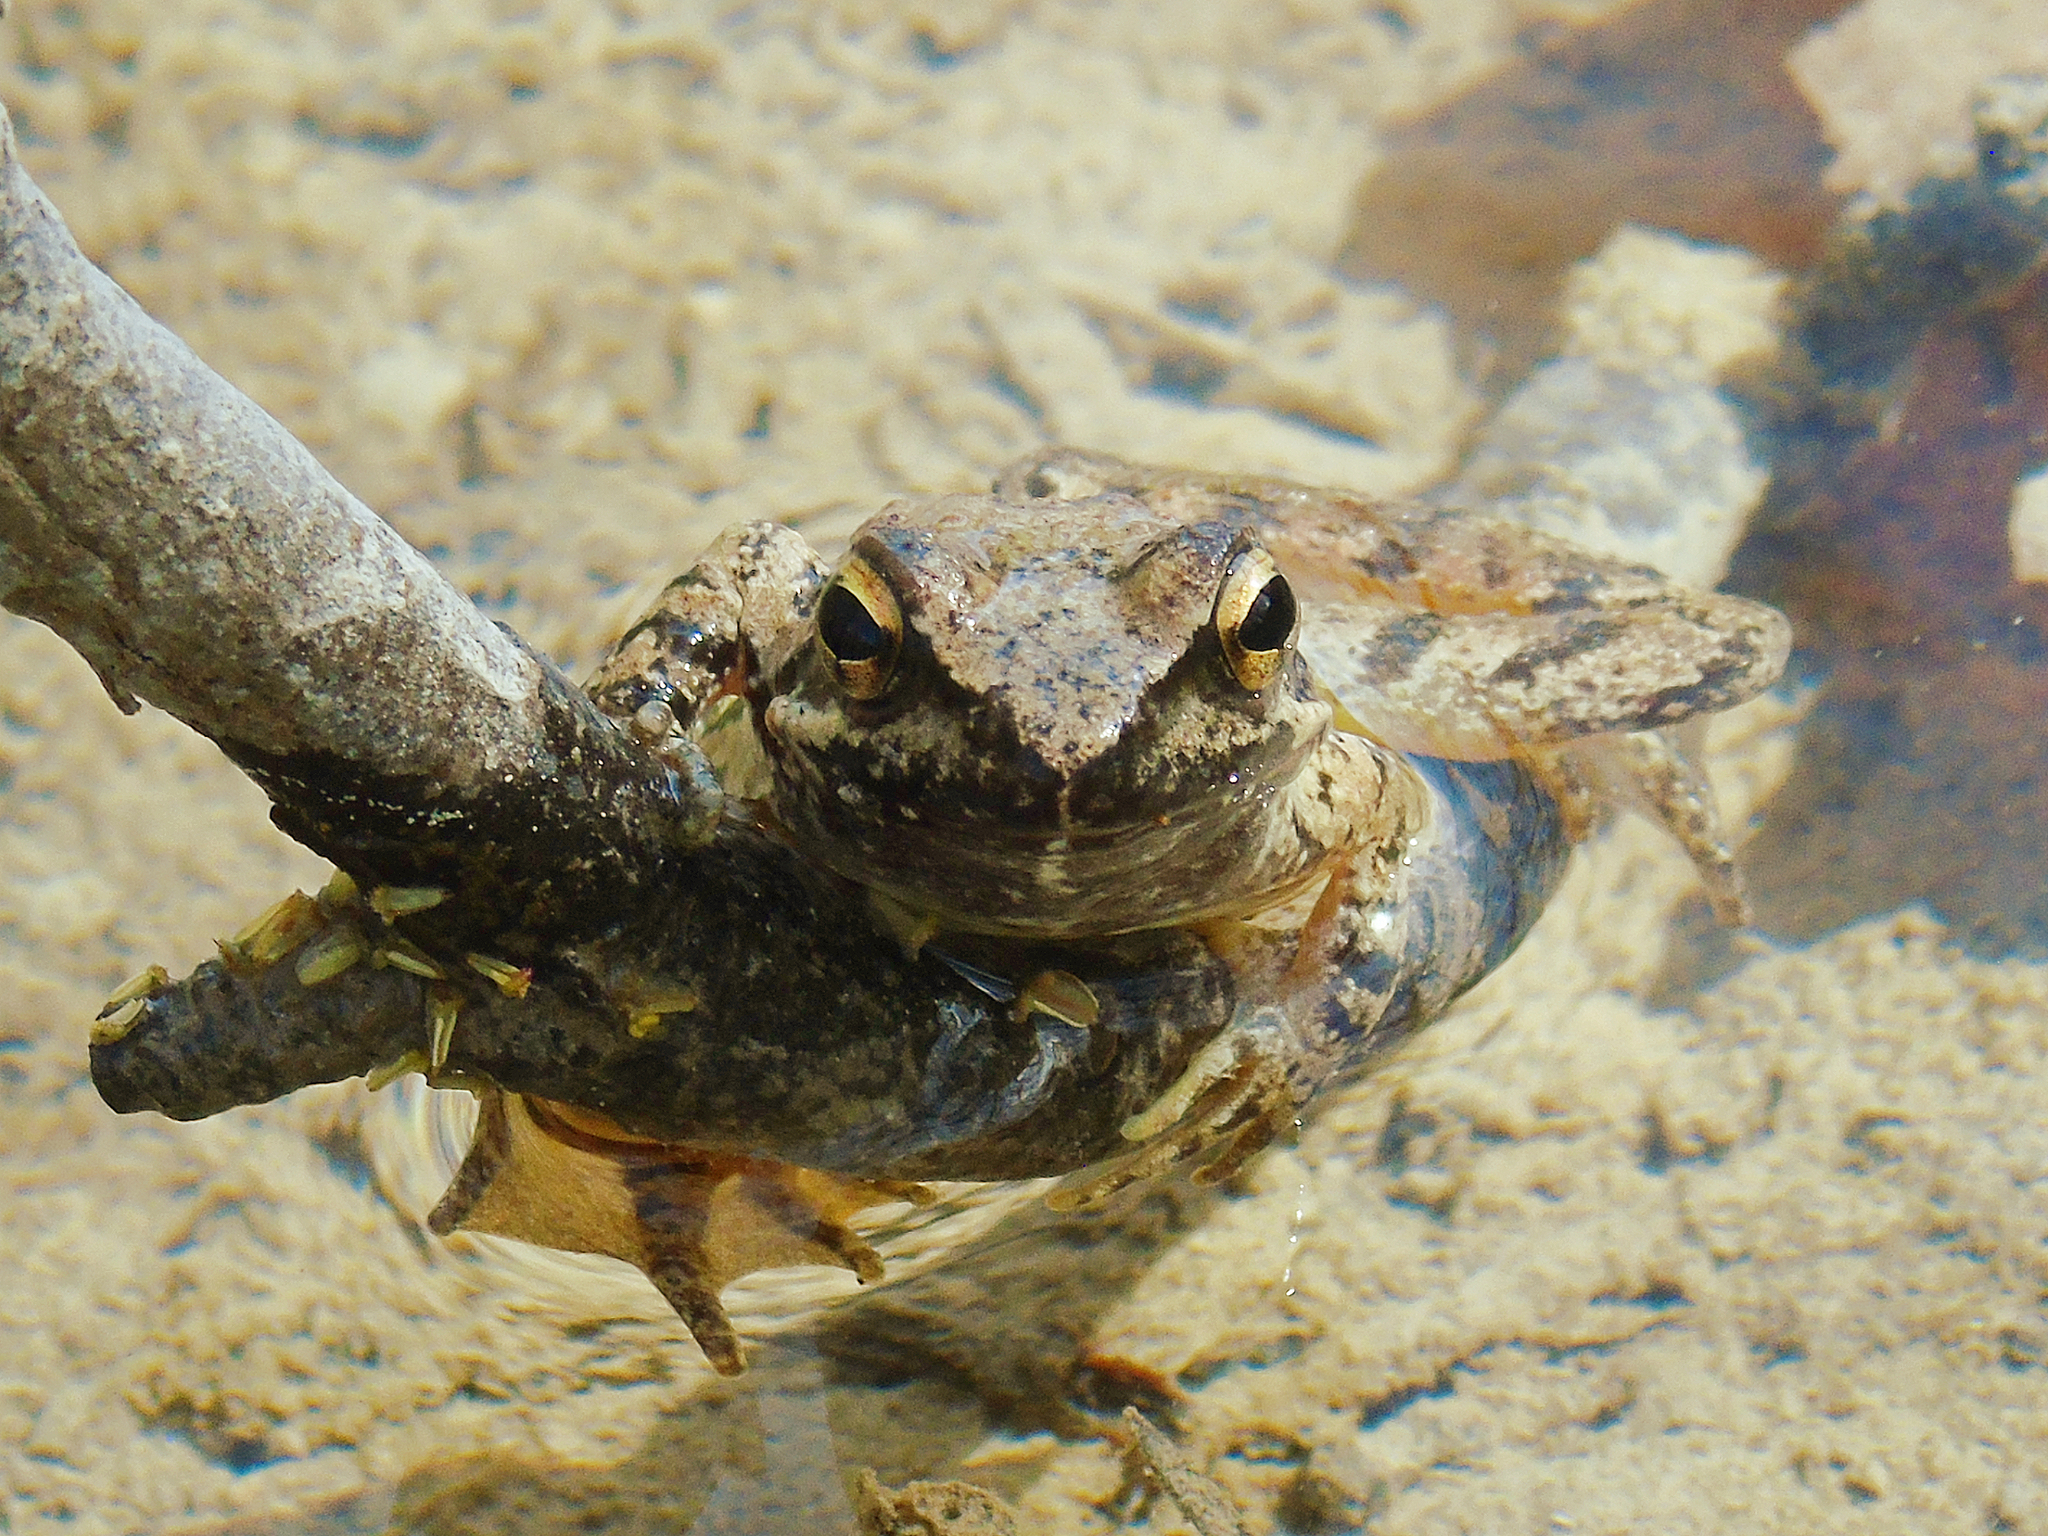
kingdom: Animalia
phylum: Chordata
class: Amphibia
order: Anura
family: Ranidae
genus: Rana
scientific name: Rana graeca
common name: Greek stream frog
